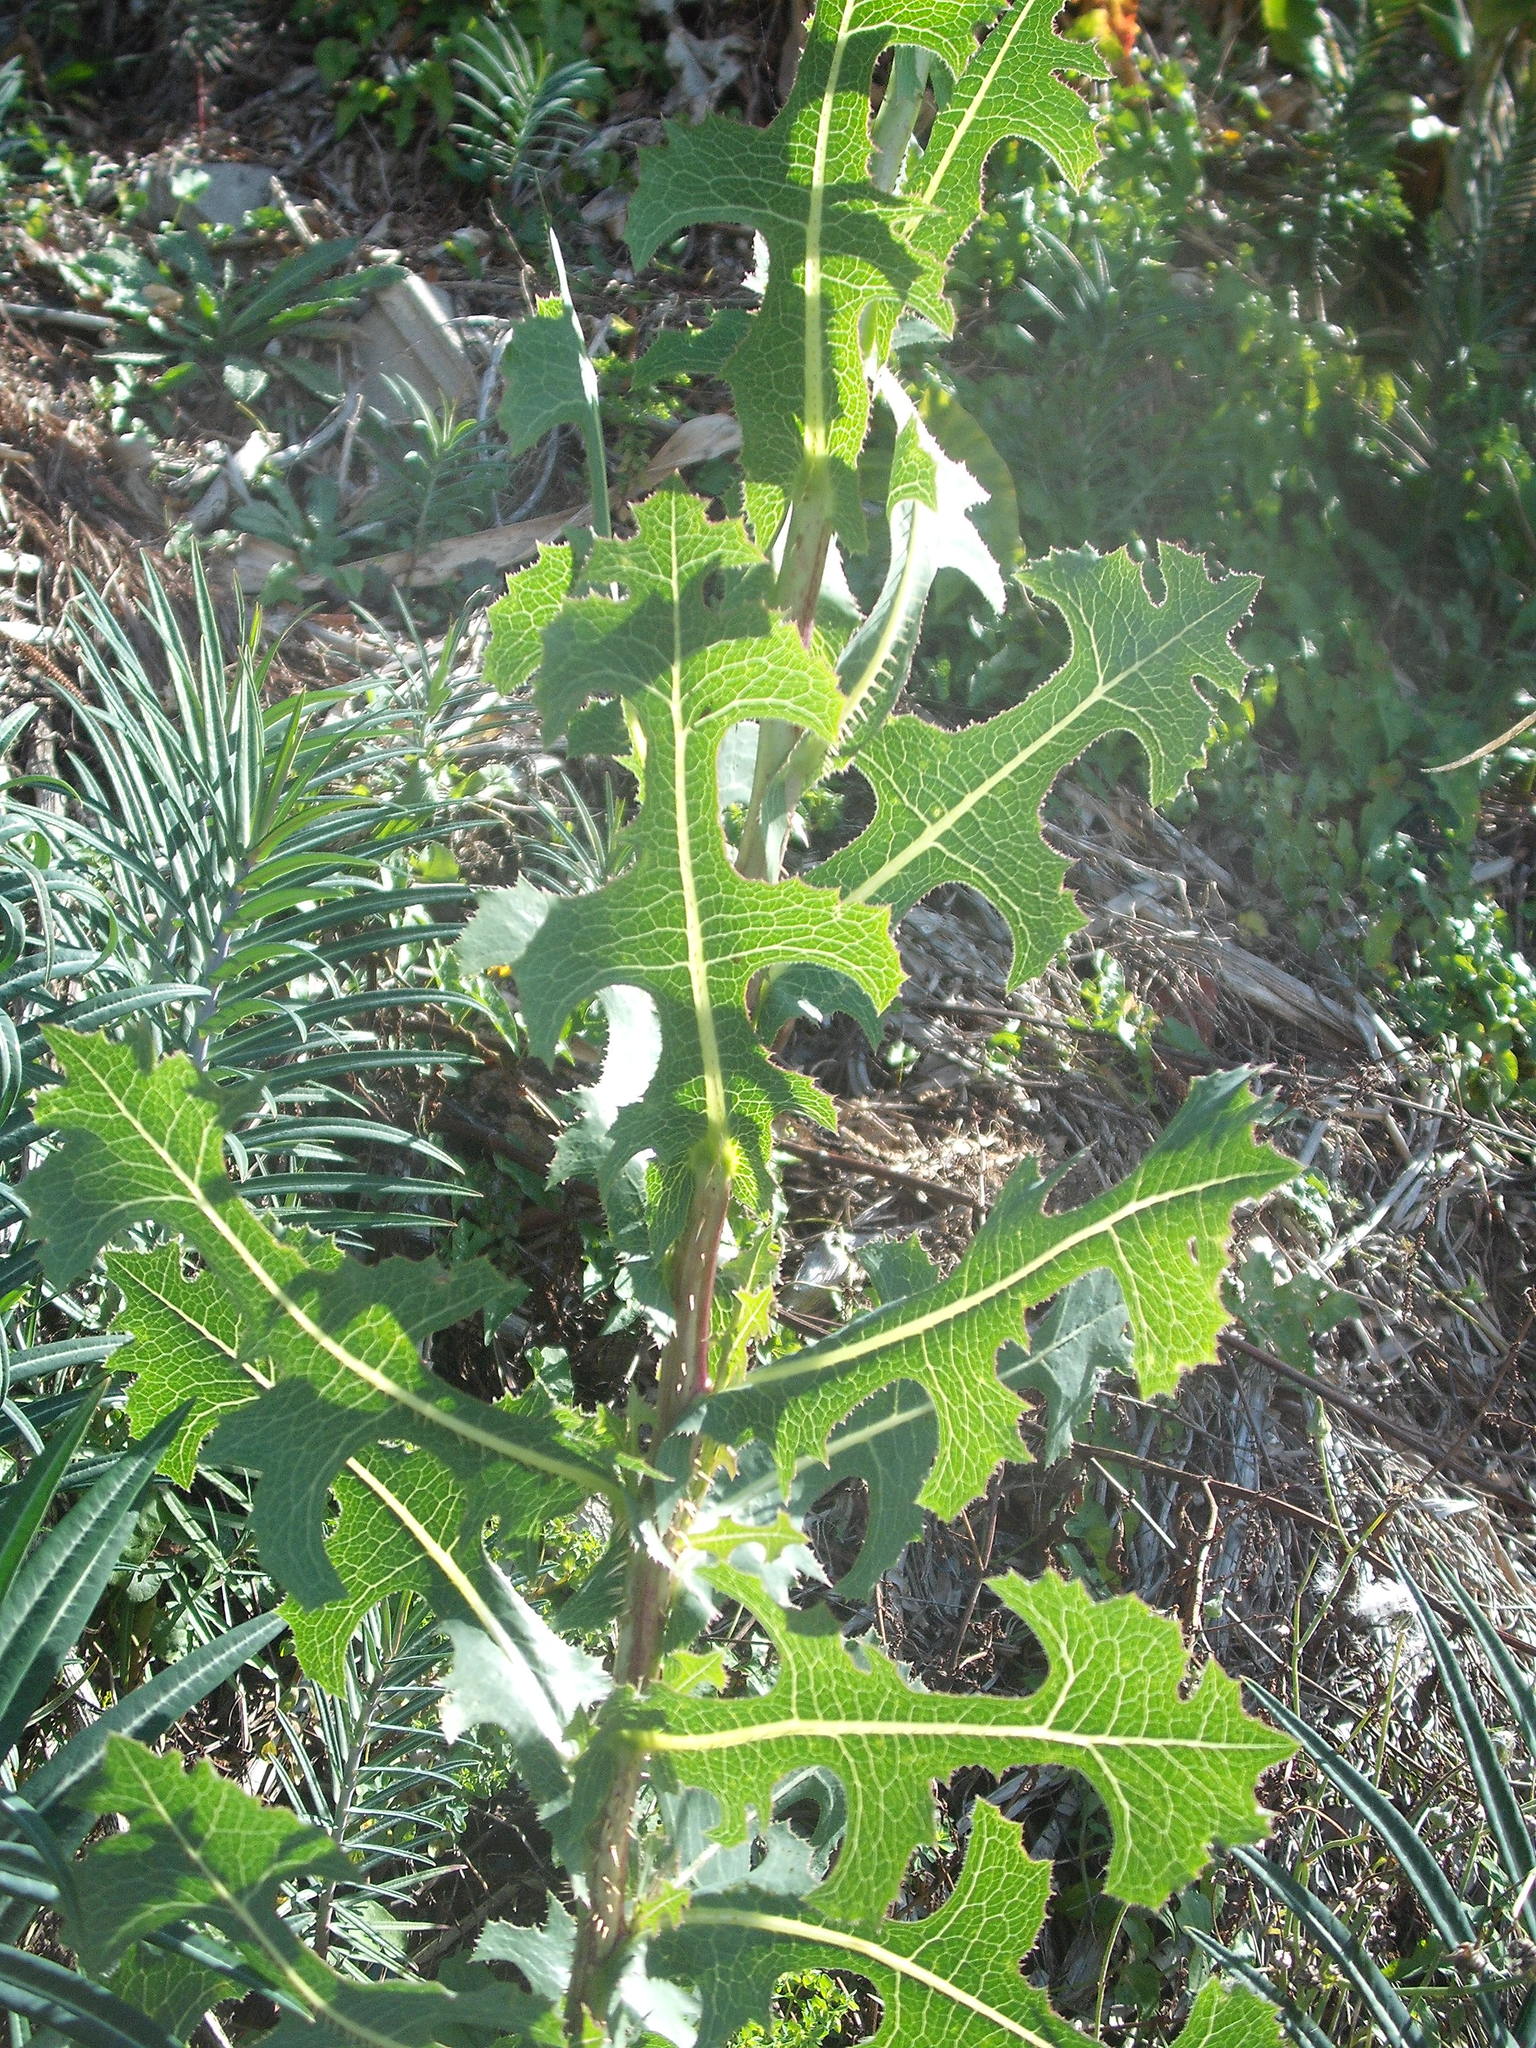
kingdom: Plantae
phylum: Tracheophyta
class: Magnoliopsida
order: Asterales
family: Asteraceae
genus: Lactuca
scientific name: Lactuca serriola
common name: Prickly lettuce
